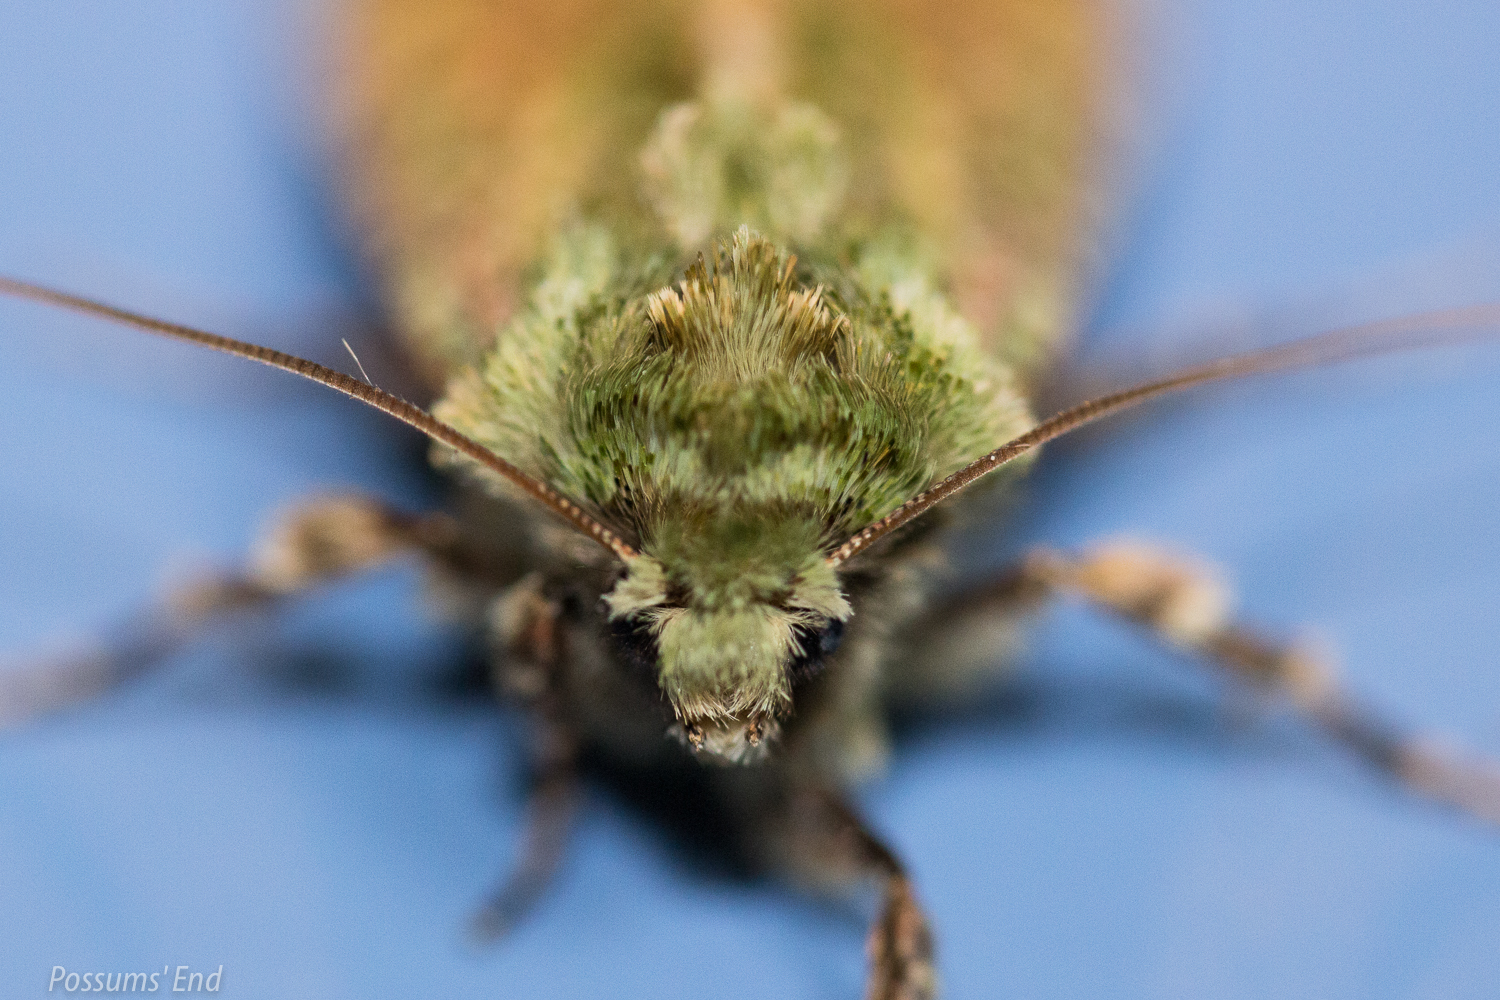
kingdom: Animalia
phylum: Arthropoda
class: Insecta
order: Lepidoptera
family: Noctuidae
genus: Feredayia
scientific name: Feredayia grammosa
